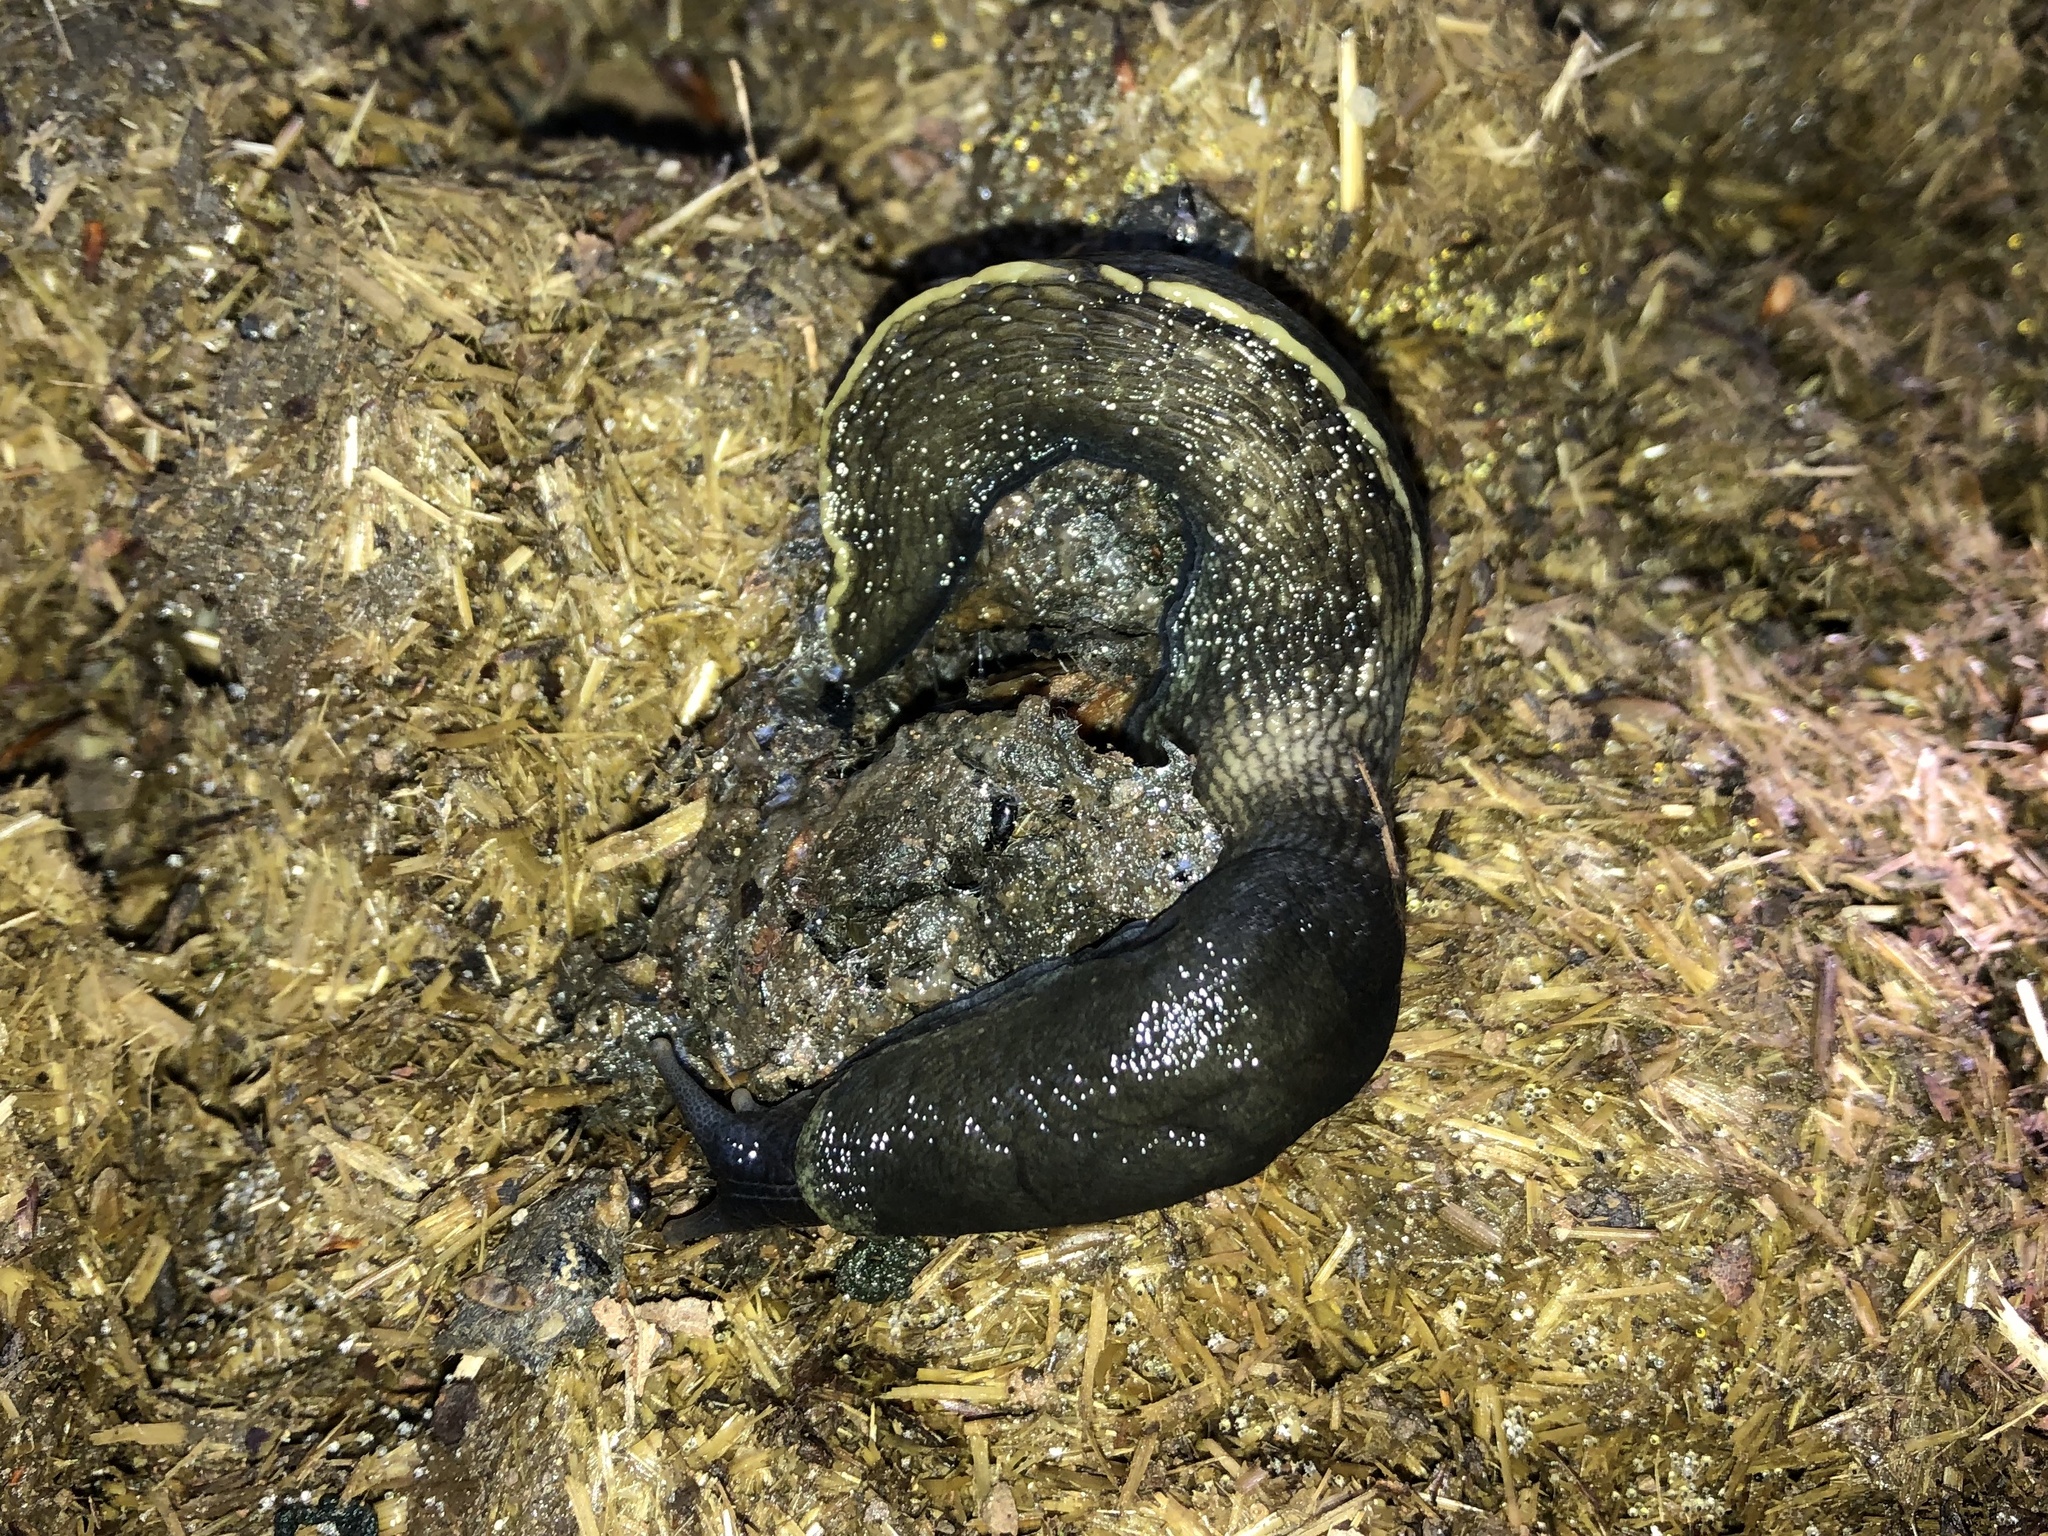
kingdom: Animalia
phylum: Mollusca
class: Gastropoda
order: Stylommatophora
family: Limacidae
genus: Limax
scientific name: Limax cinereoniger
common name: Ash-black slug
